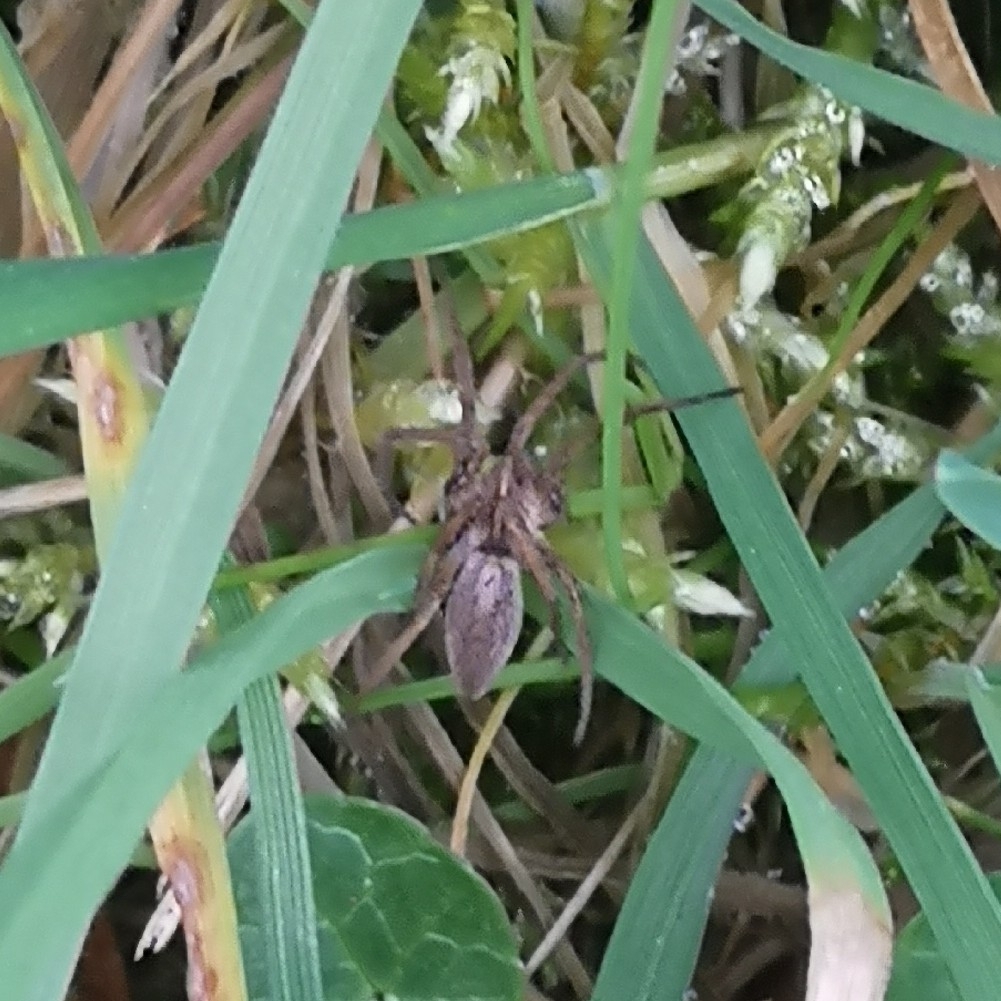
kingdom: Animalia
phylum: Arthropoda
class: Arachnida
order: Araneae
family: Pisauridae
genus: Pisaura
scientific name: Pisaura mirabilis
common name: Tent spider
